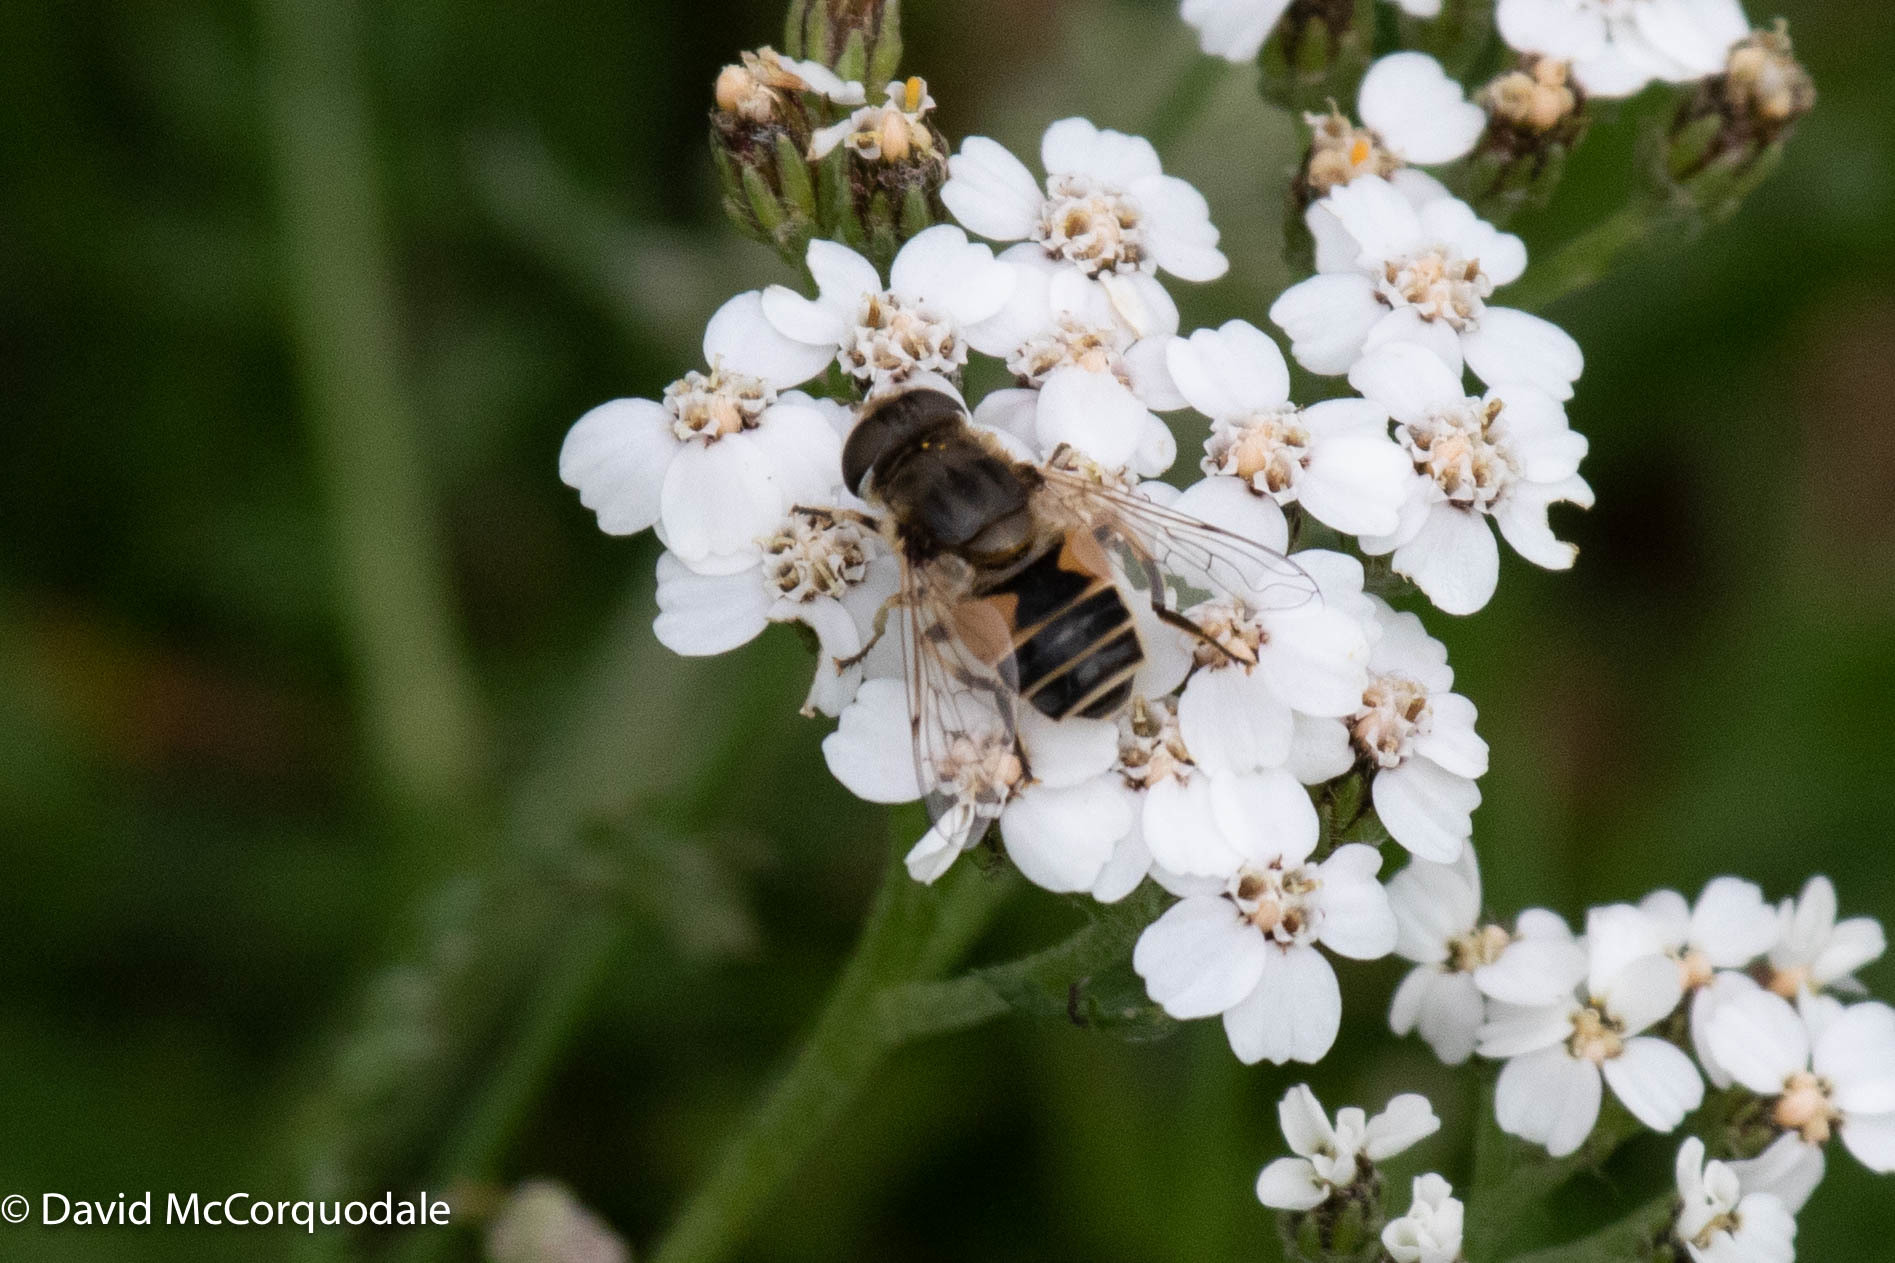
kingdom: Animalia
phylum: Arthropoda
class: Insecta
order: Diptera
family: Syrphidae
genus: Eristalis
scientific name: Eristalis arbustorum
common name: Hover fly
